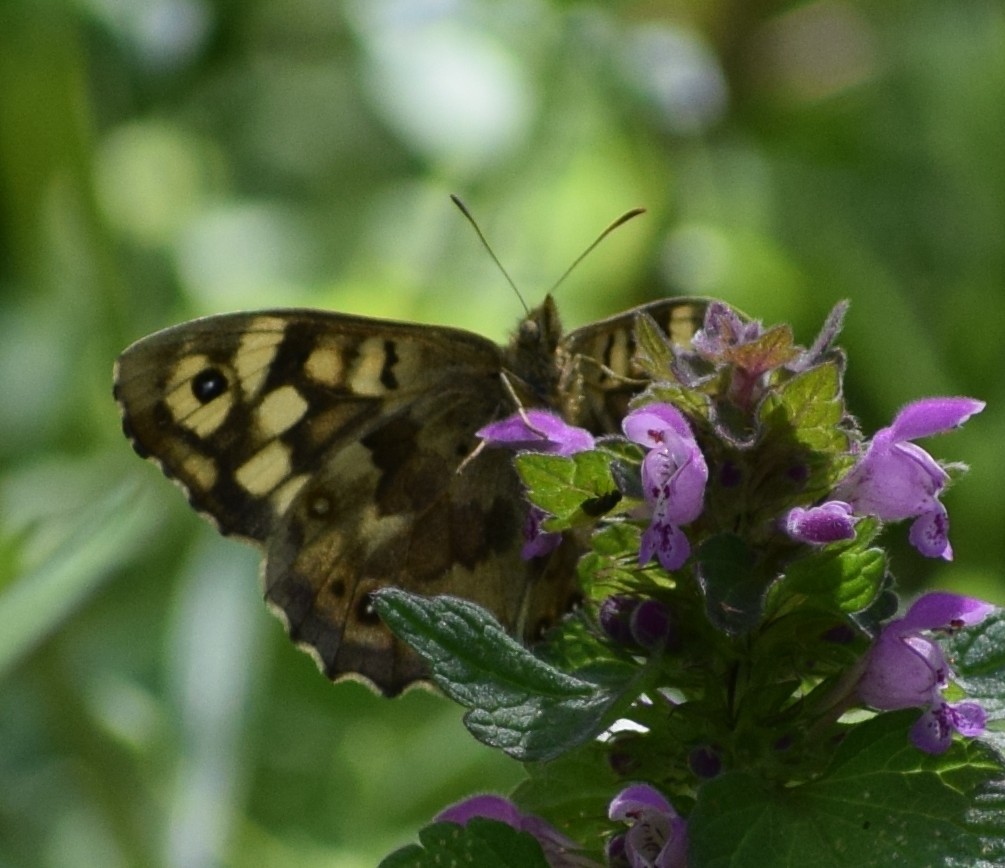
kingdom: Animalia
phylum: Arthropoda
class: Insecta
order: Lepidoptera
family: Nymphalidae
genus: Pararge
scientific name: Pararge aegeria
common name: Speckled wood
